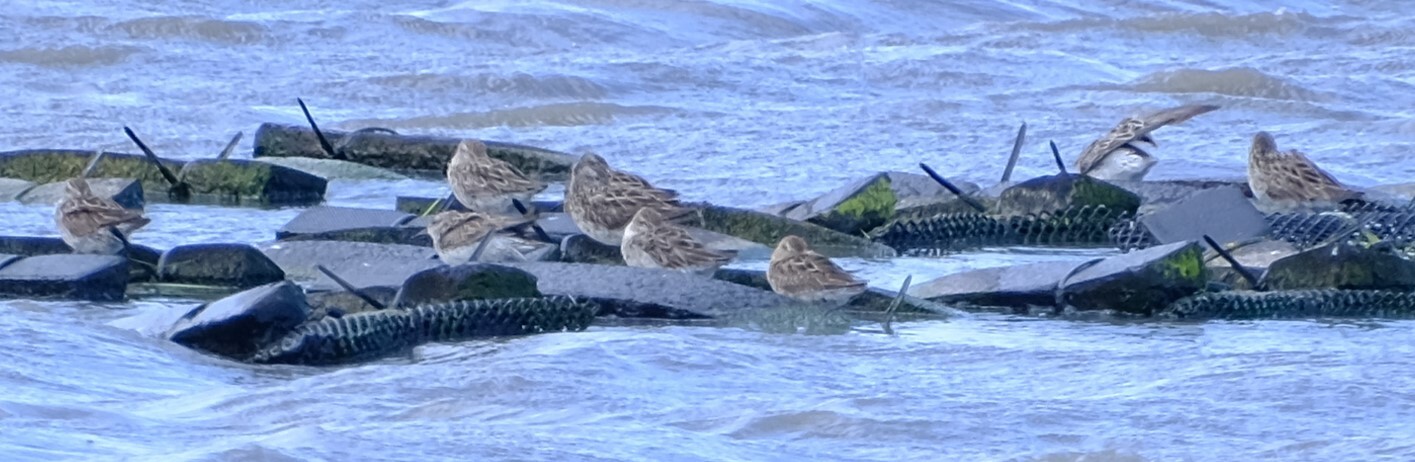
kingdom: Animalia
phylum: Chordata
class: Aves
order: Charadriiformes
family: Scolopacidae
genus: Calidris
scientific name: Calidris acuminata
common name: Sharp-tailed sandpiper
